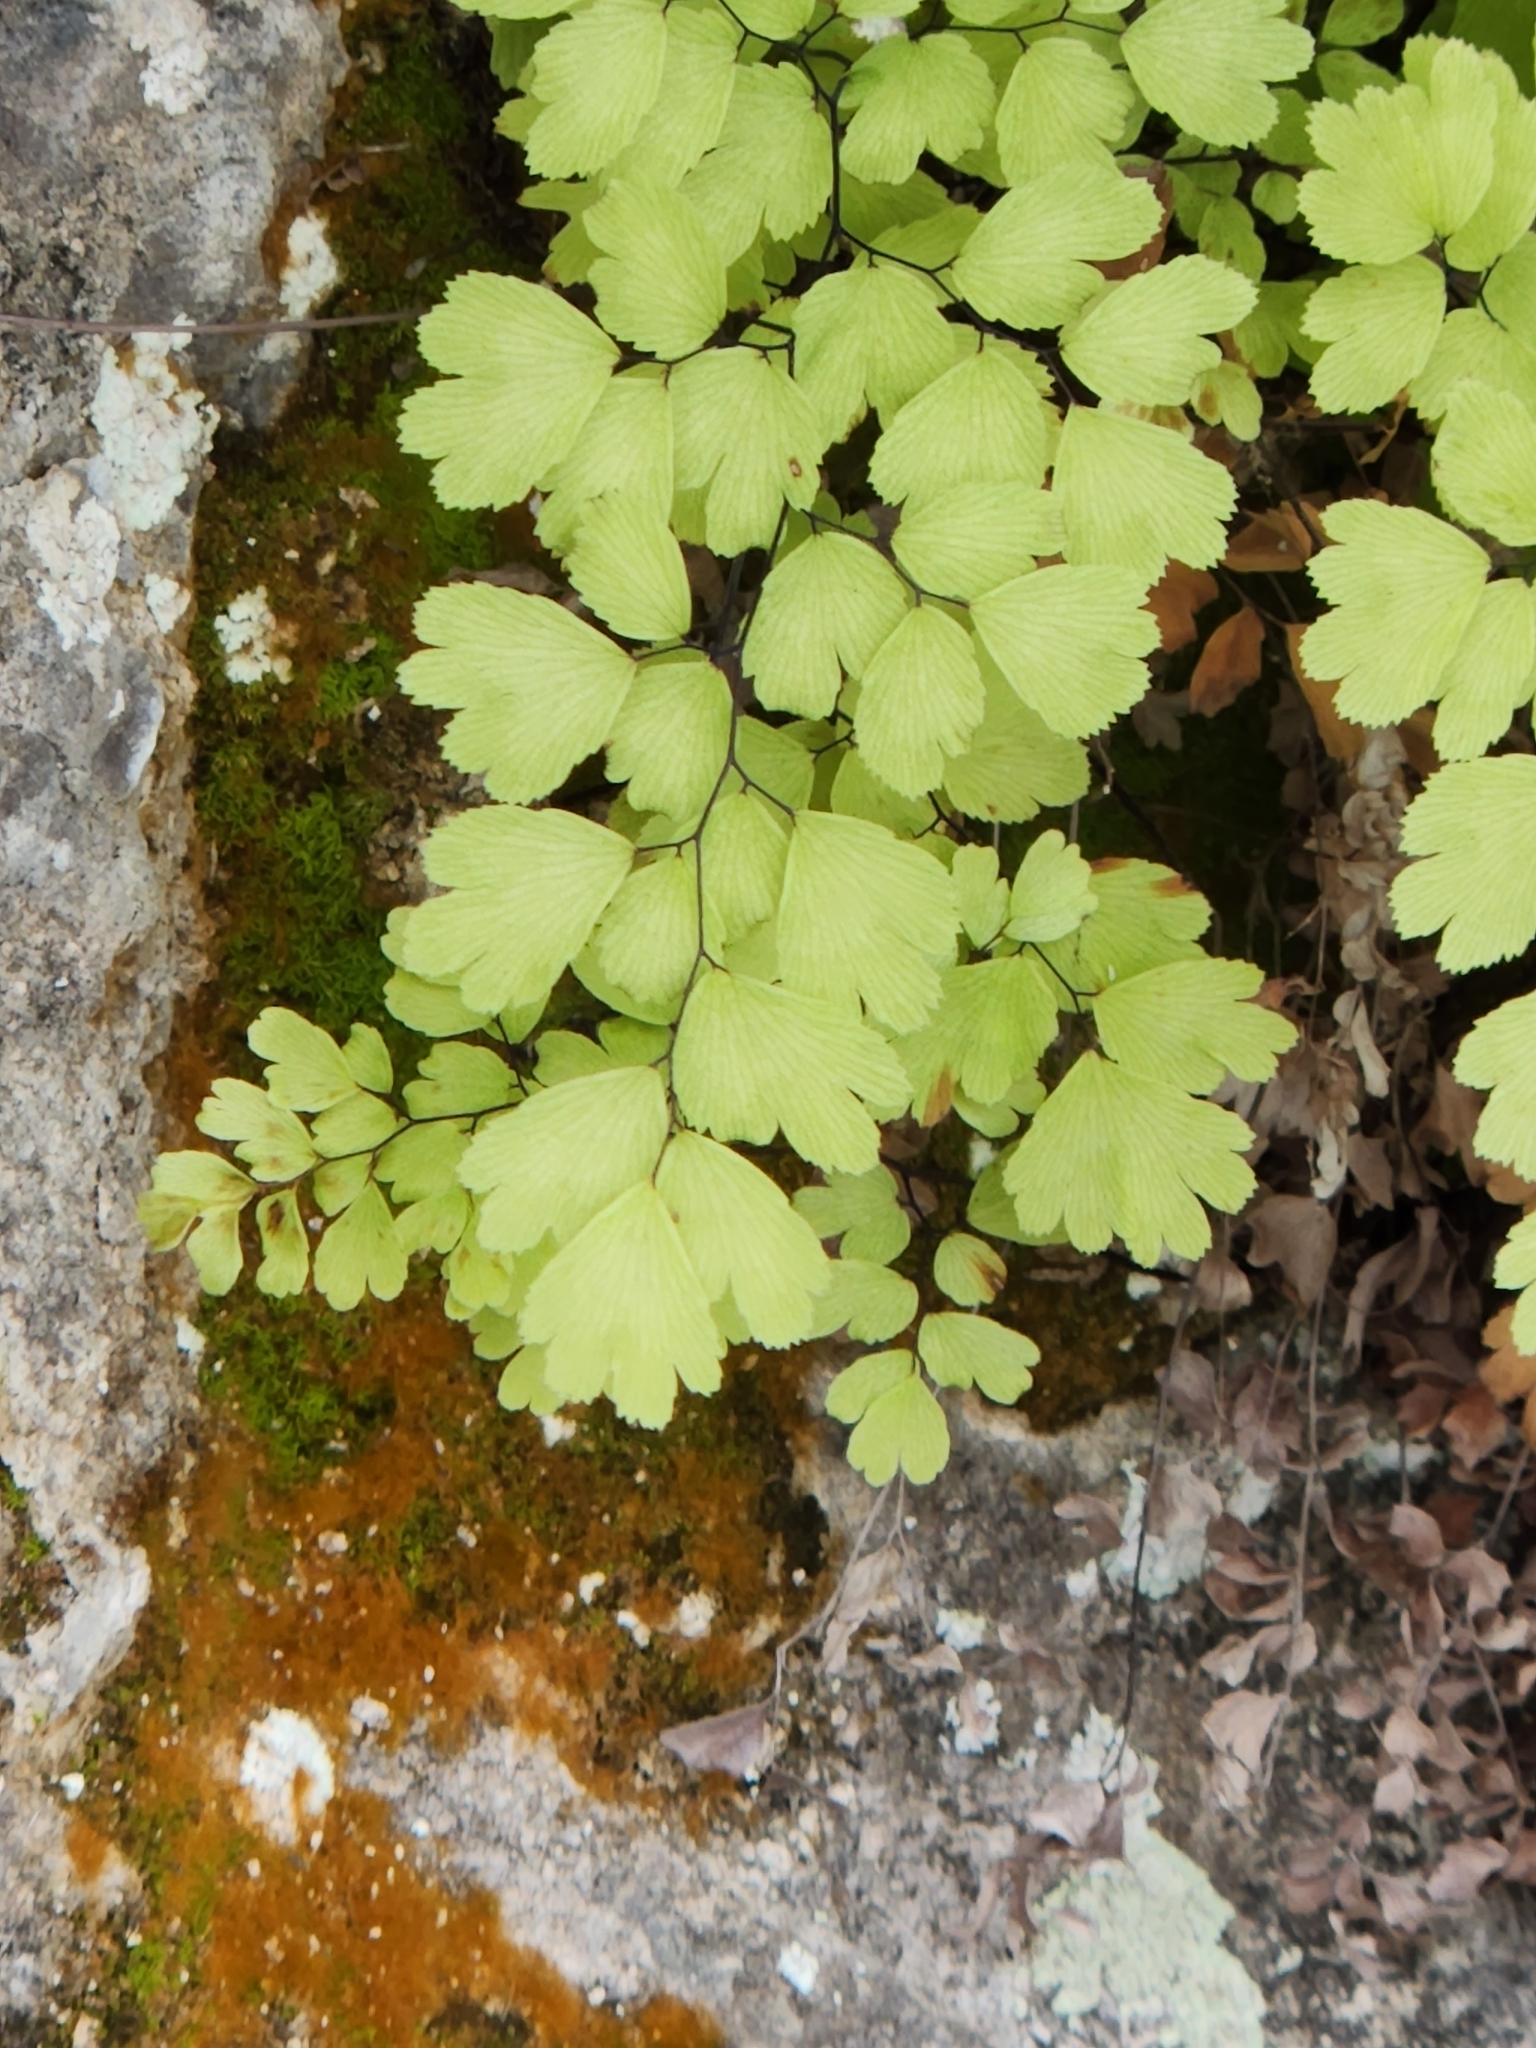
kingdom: Plantae
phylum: Tracheophyta
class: Polypodiopsida
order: Polypodiales
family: Pteridaceae
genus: Adiantum
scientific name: Adiantum capillus-veneris
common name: Maidenhair fern
